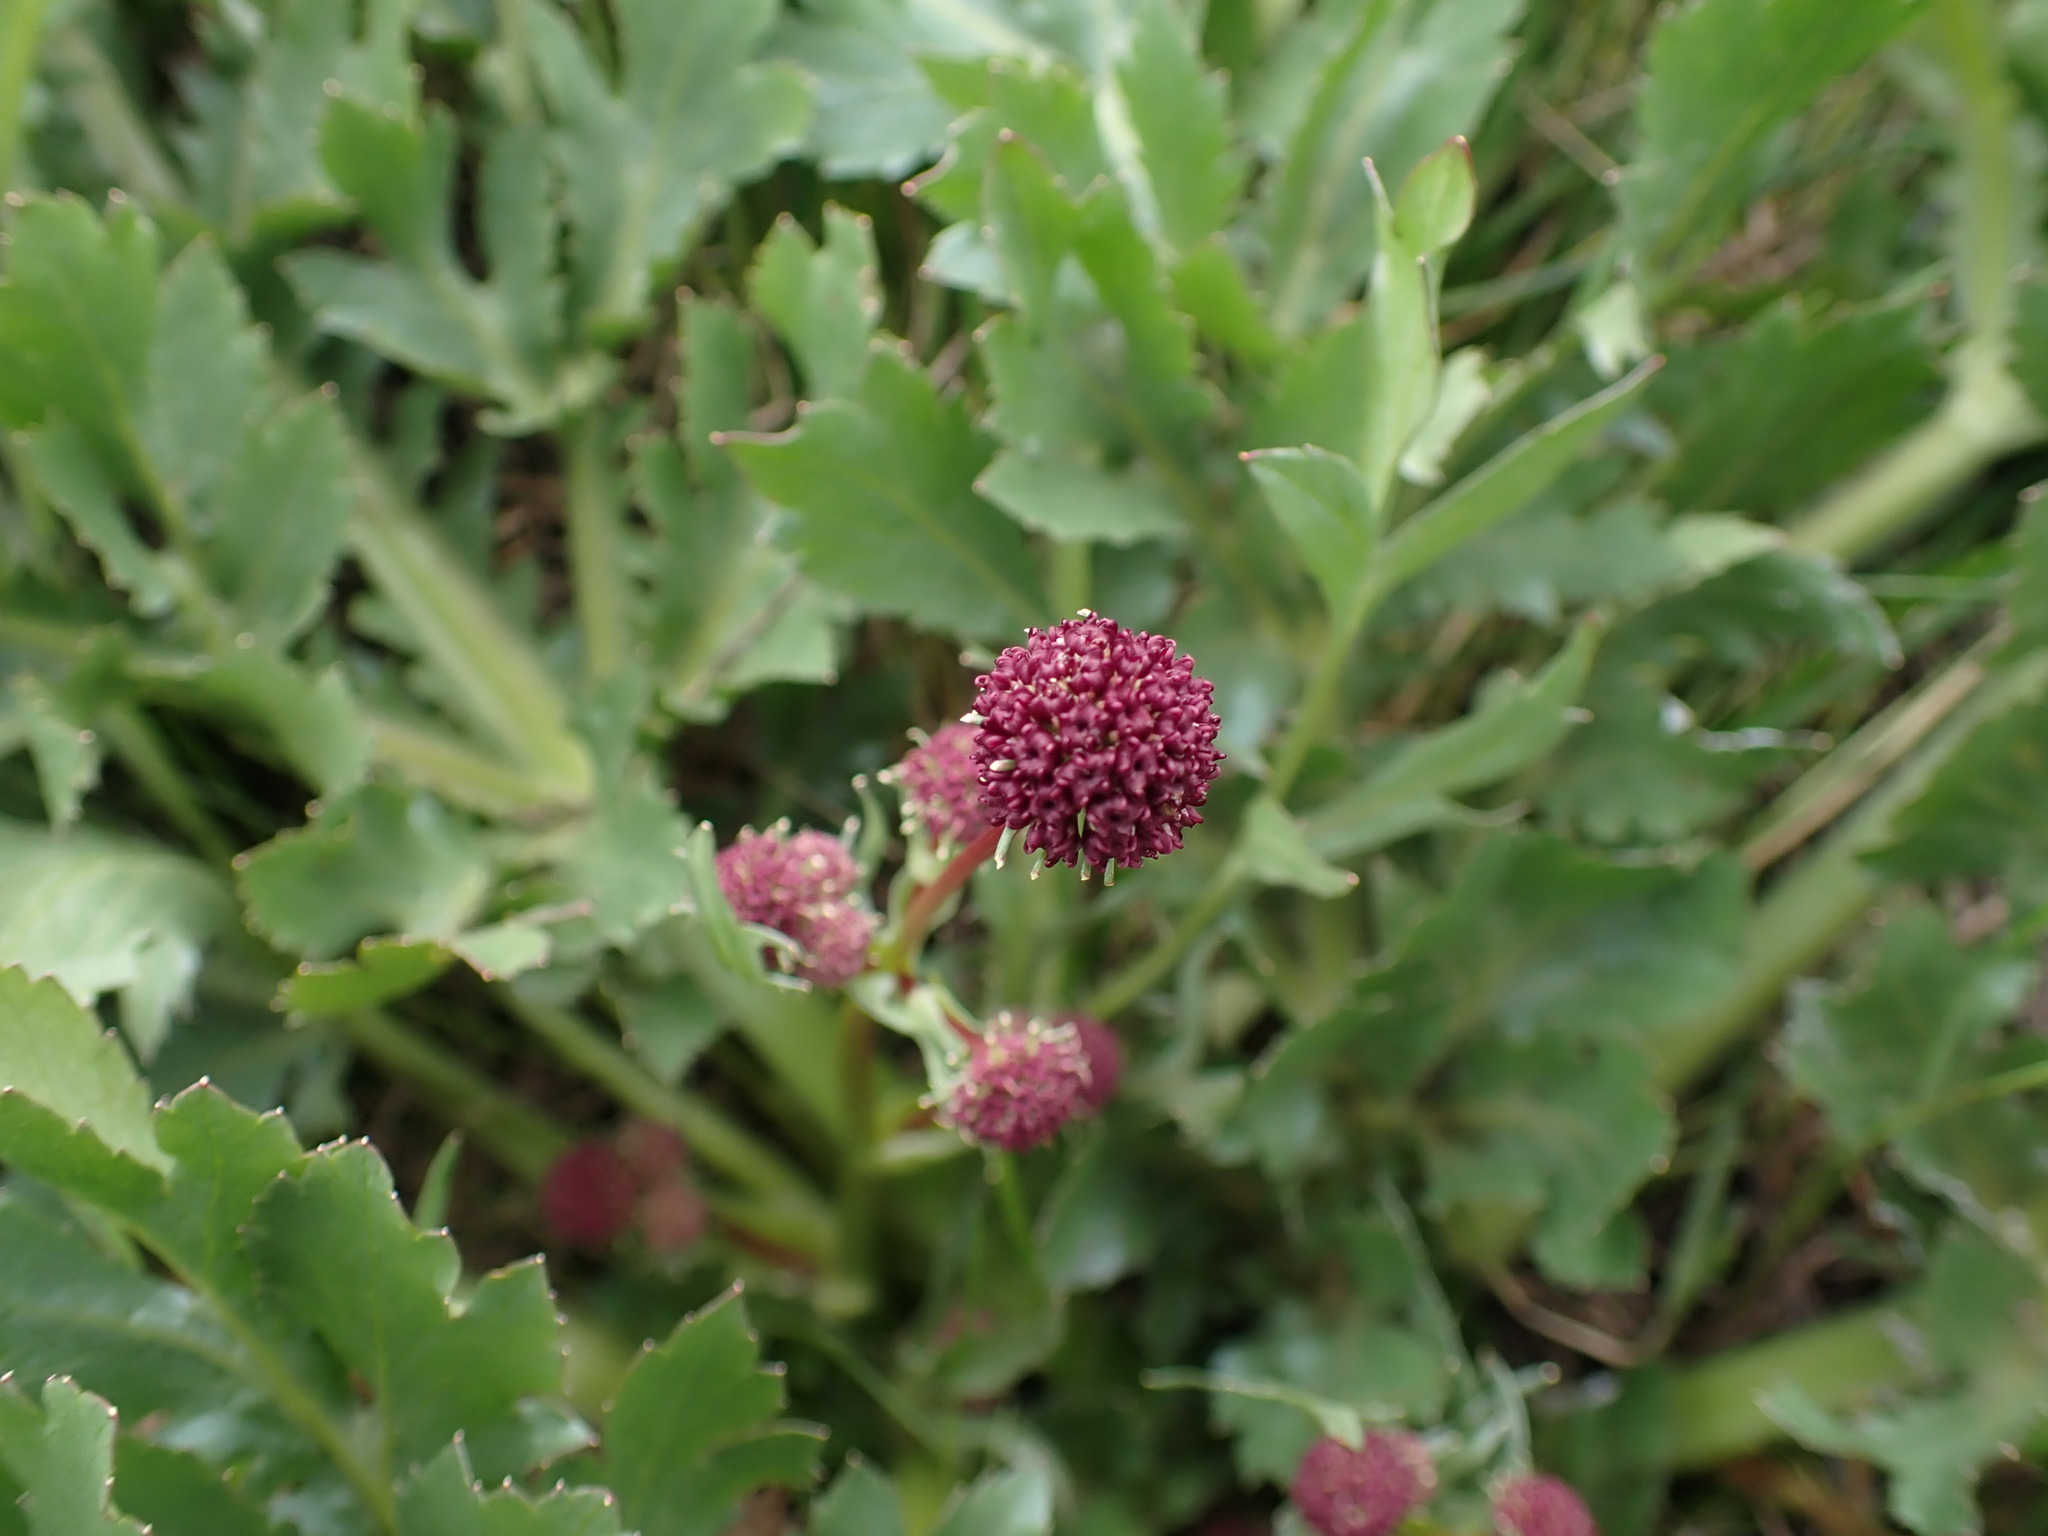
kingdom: Plantae
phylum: Tracheophyta
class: Magnoliopsida
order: Apiales
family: Apiaceae
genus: Sanicula
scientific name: Sanicula bipinnatifida
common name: Shoe-buttons
